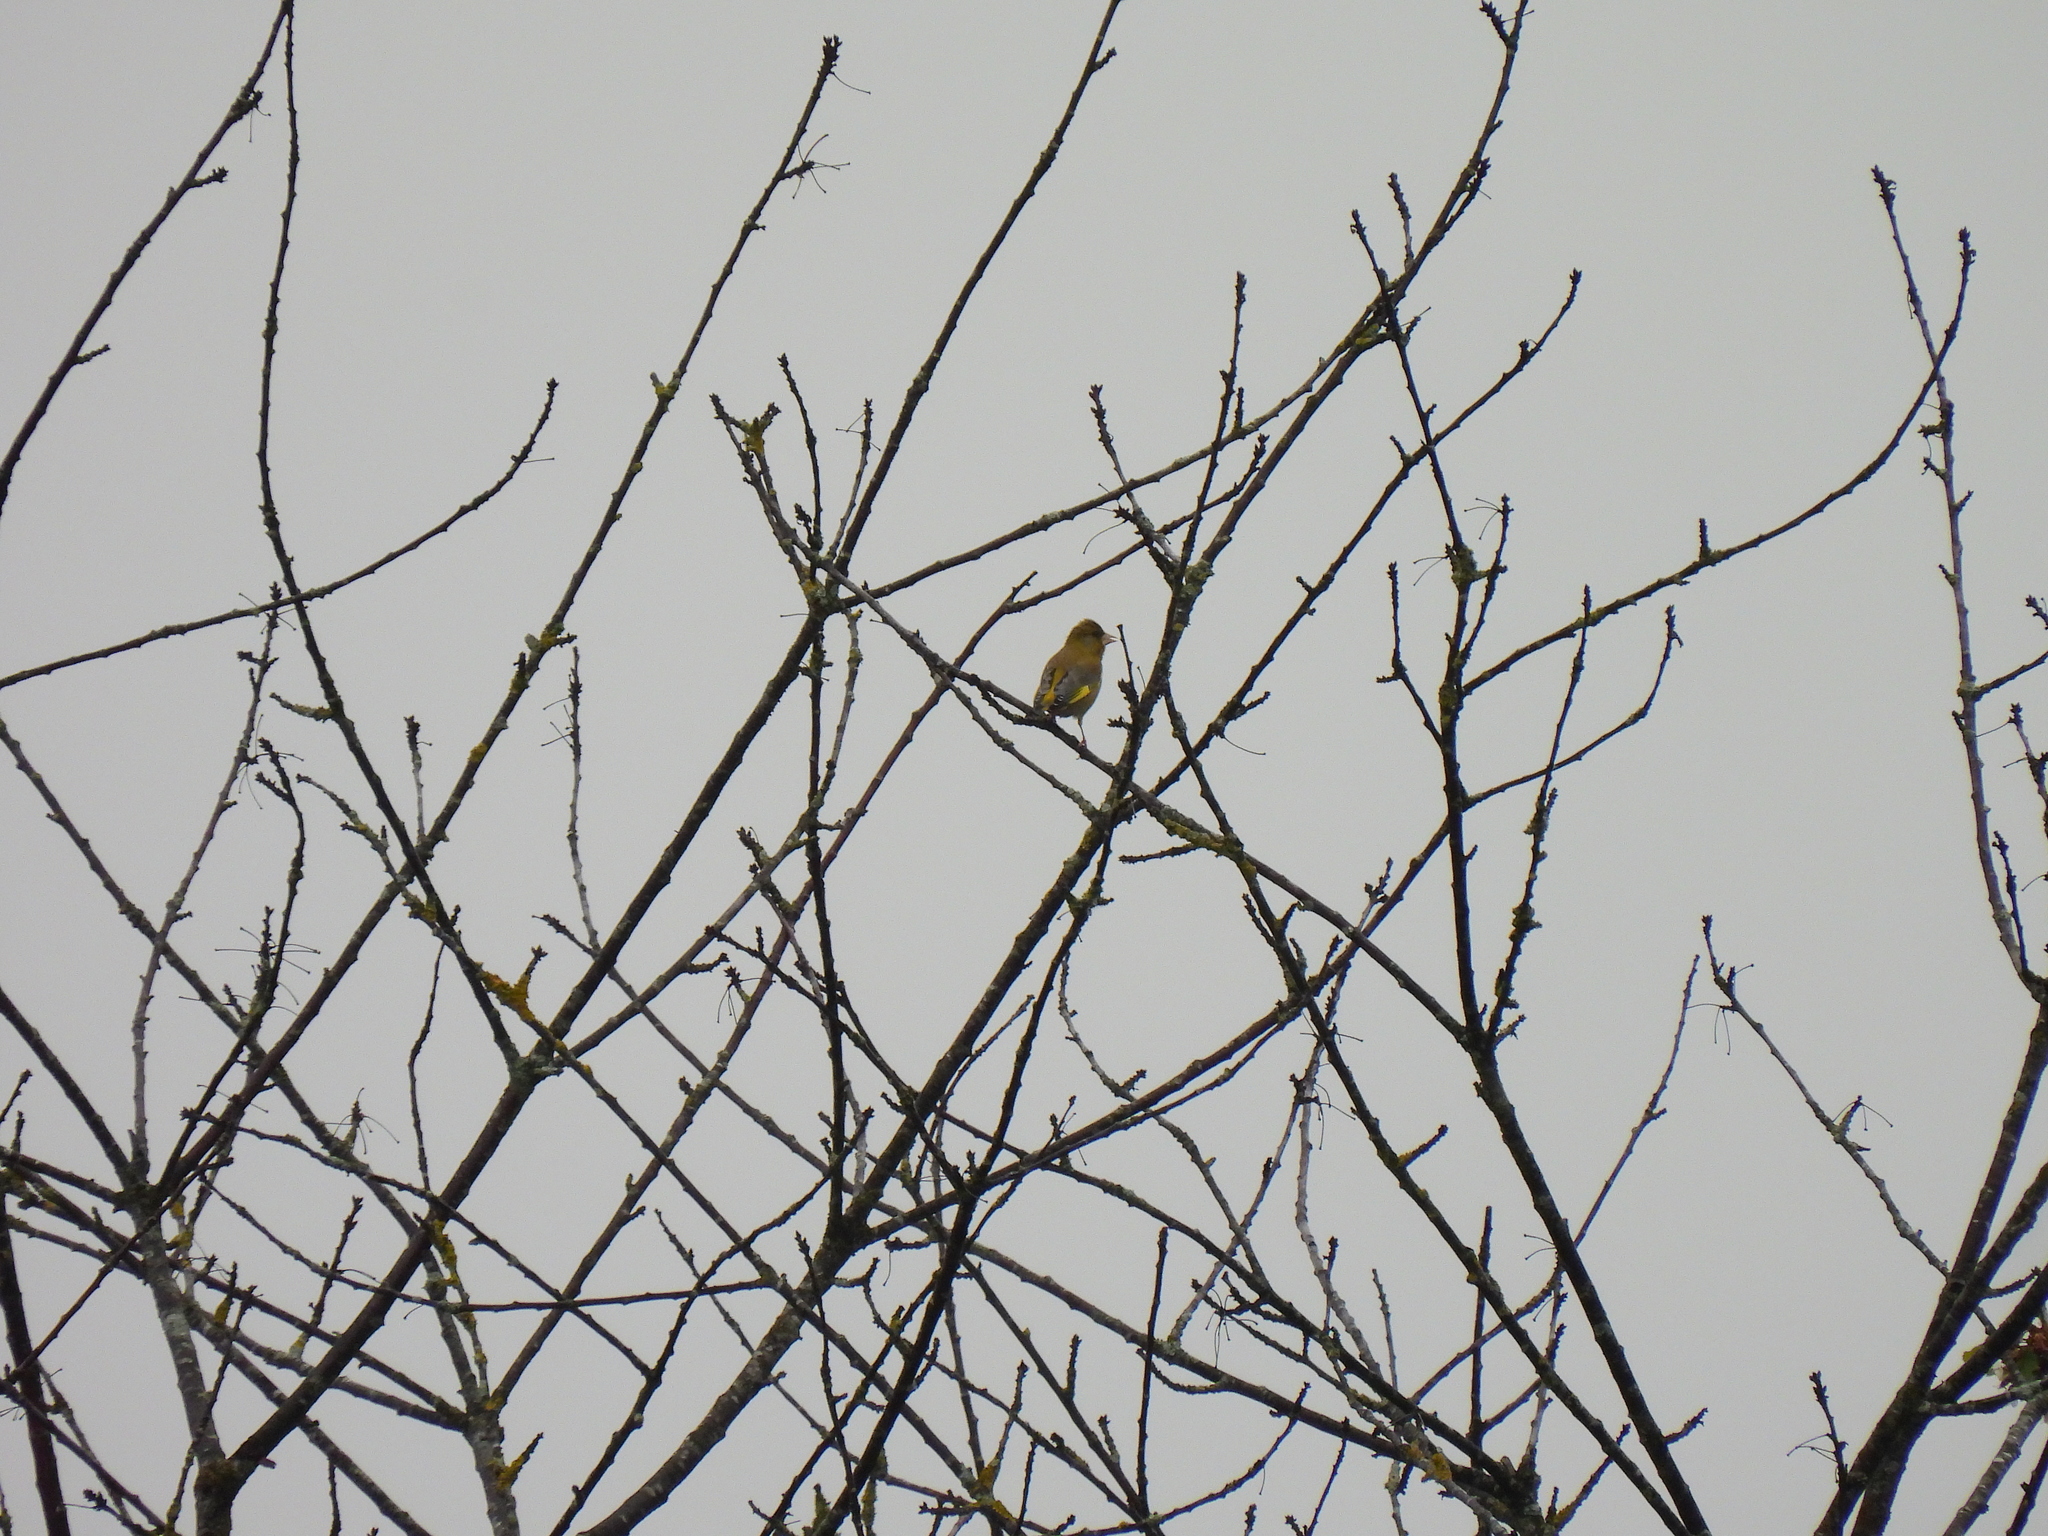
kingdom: Plantae
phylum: Tracheophyta
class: Liliopsida
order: Poales
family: Poaceae
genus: Chloris
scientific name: Chloris chloris
